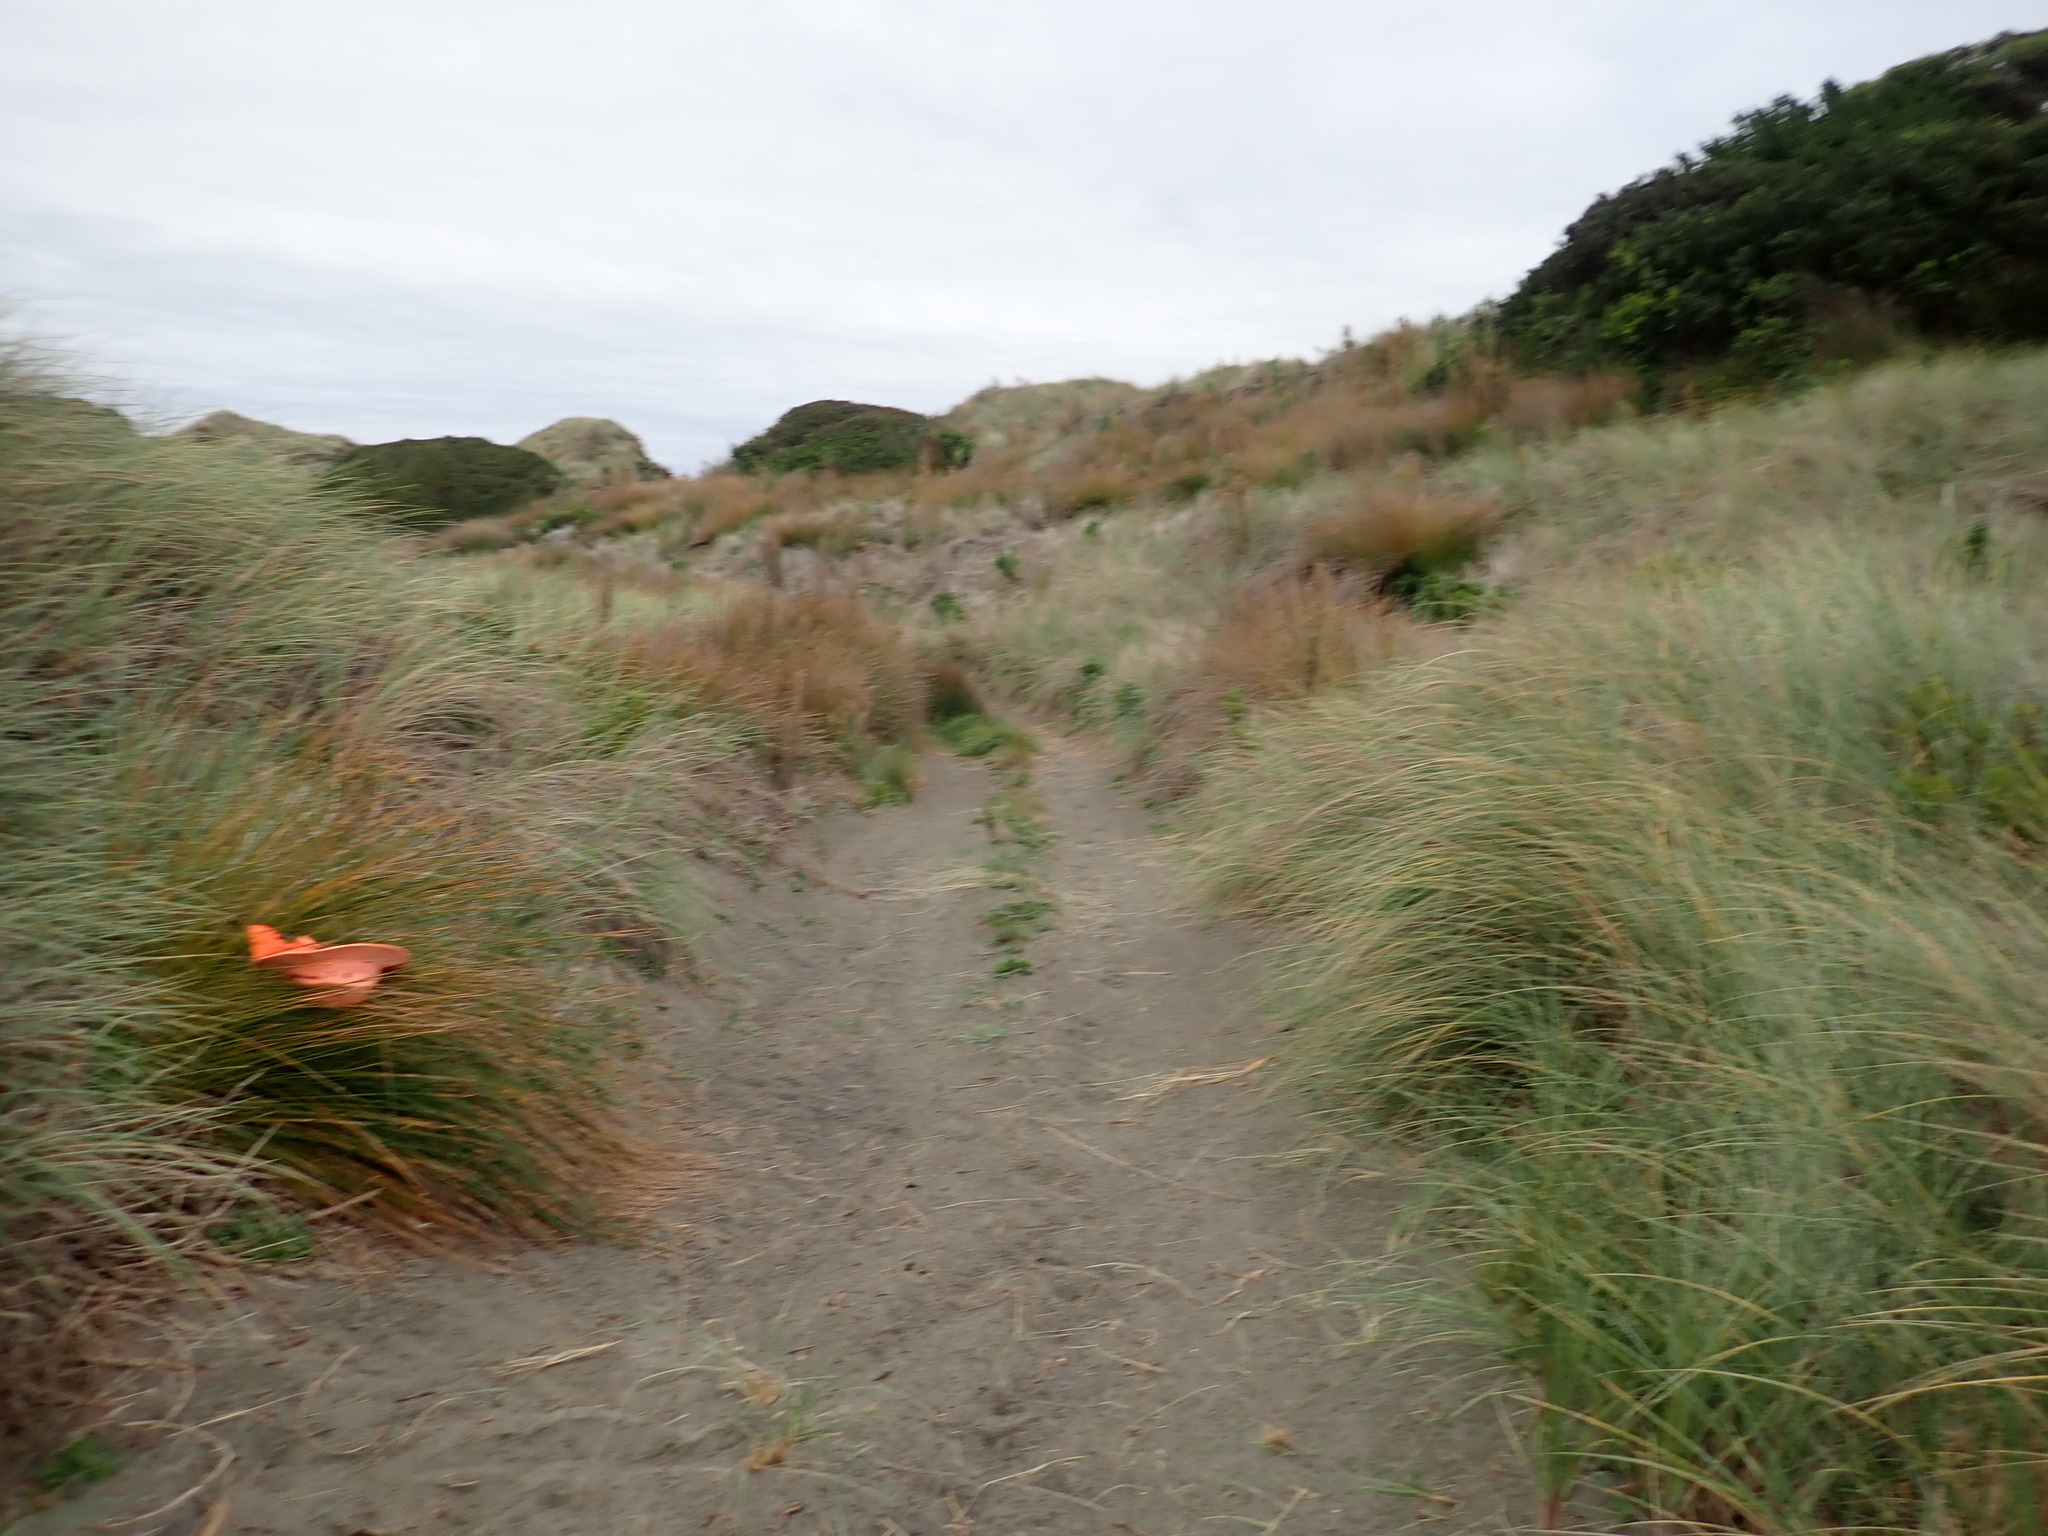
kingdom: Plantae
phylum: Tracheophyta
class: Liliopsida
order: Poales
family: Cyperaceae
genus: Ficinia
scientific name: Ficinia nodosa
